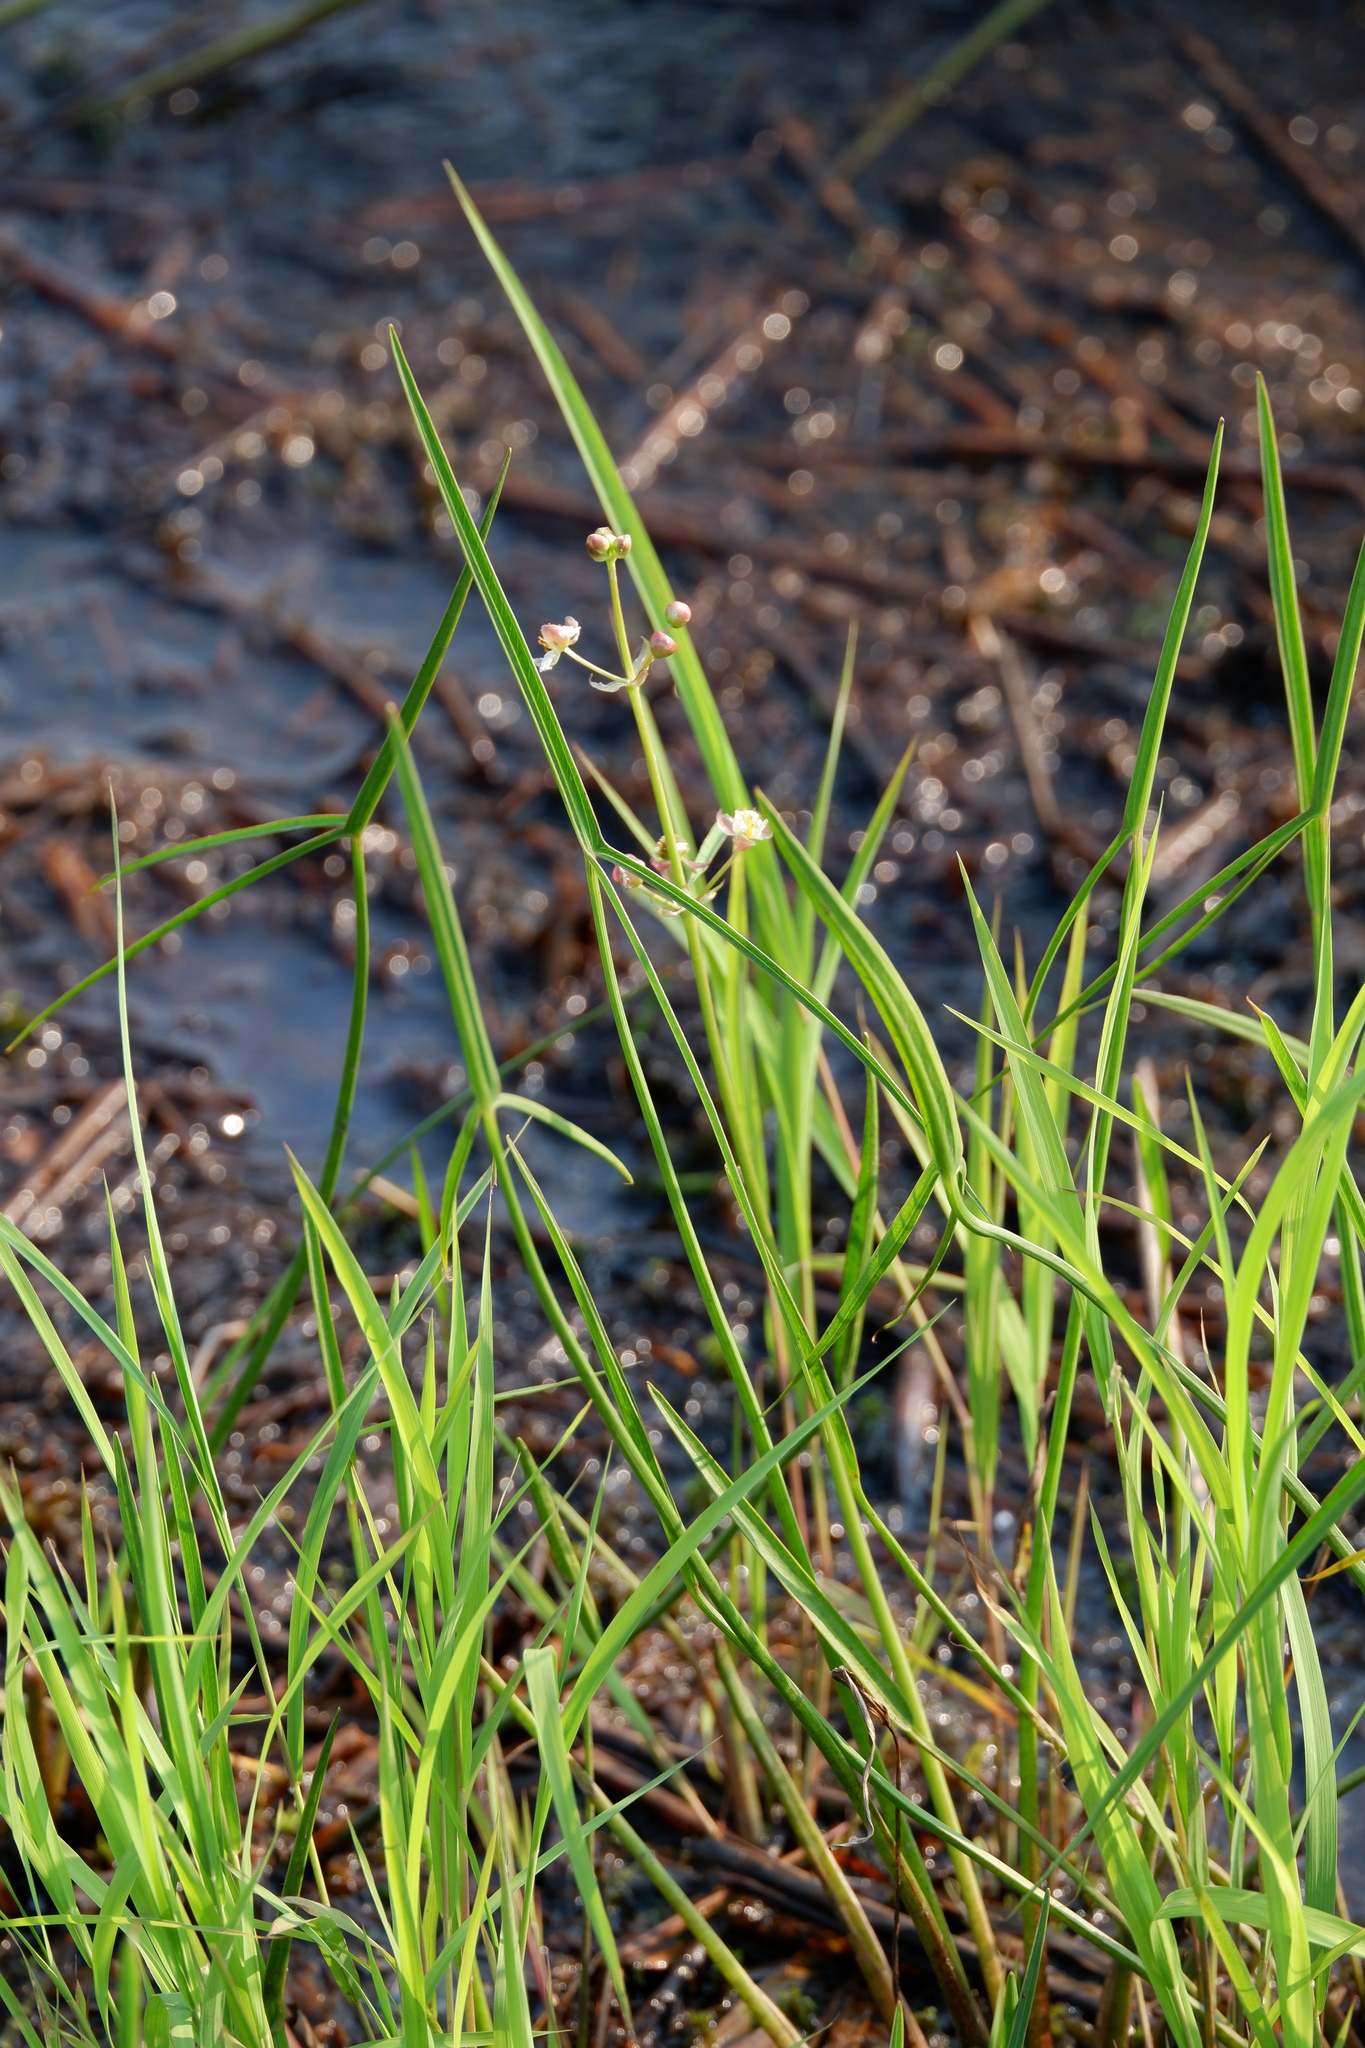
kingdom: Plantae
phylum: Tracheophyta
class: Liliopsida
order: Alismatales
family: Alismataceae
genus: Sagittaria
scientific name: Sagittaria engelmanniana
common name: Acid-water arrowhead
